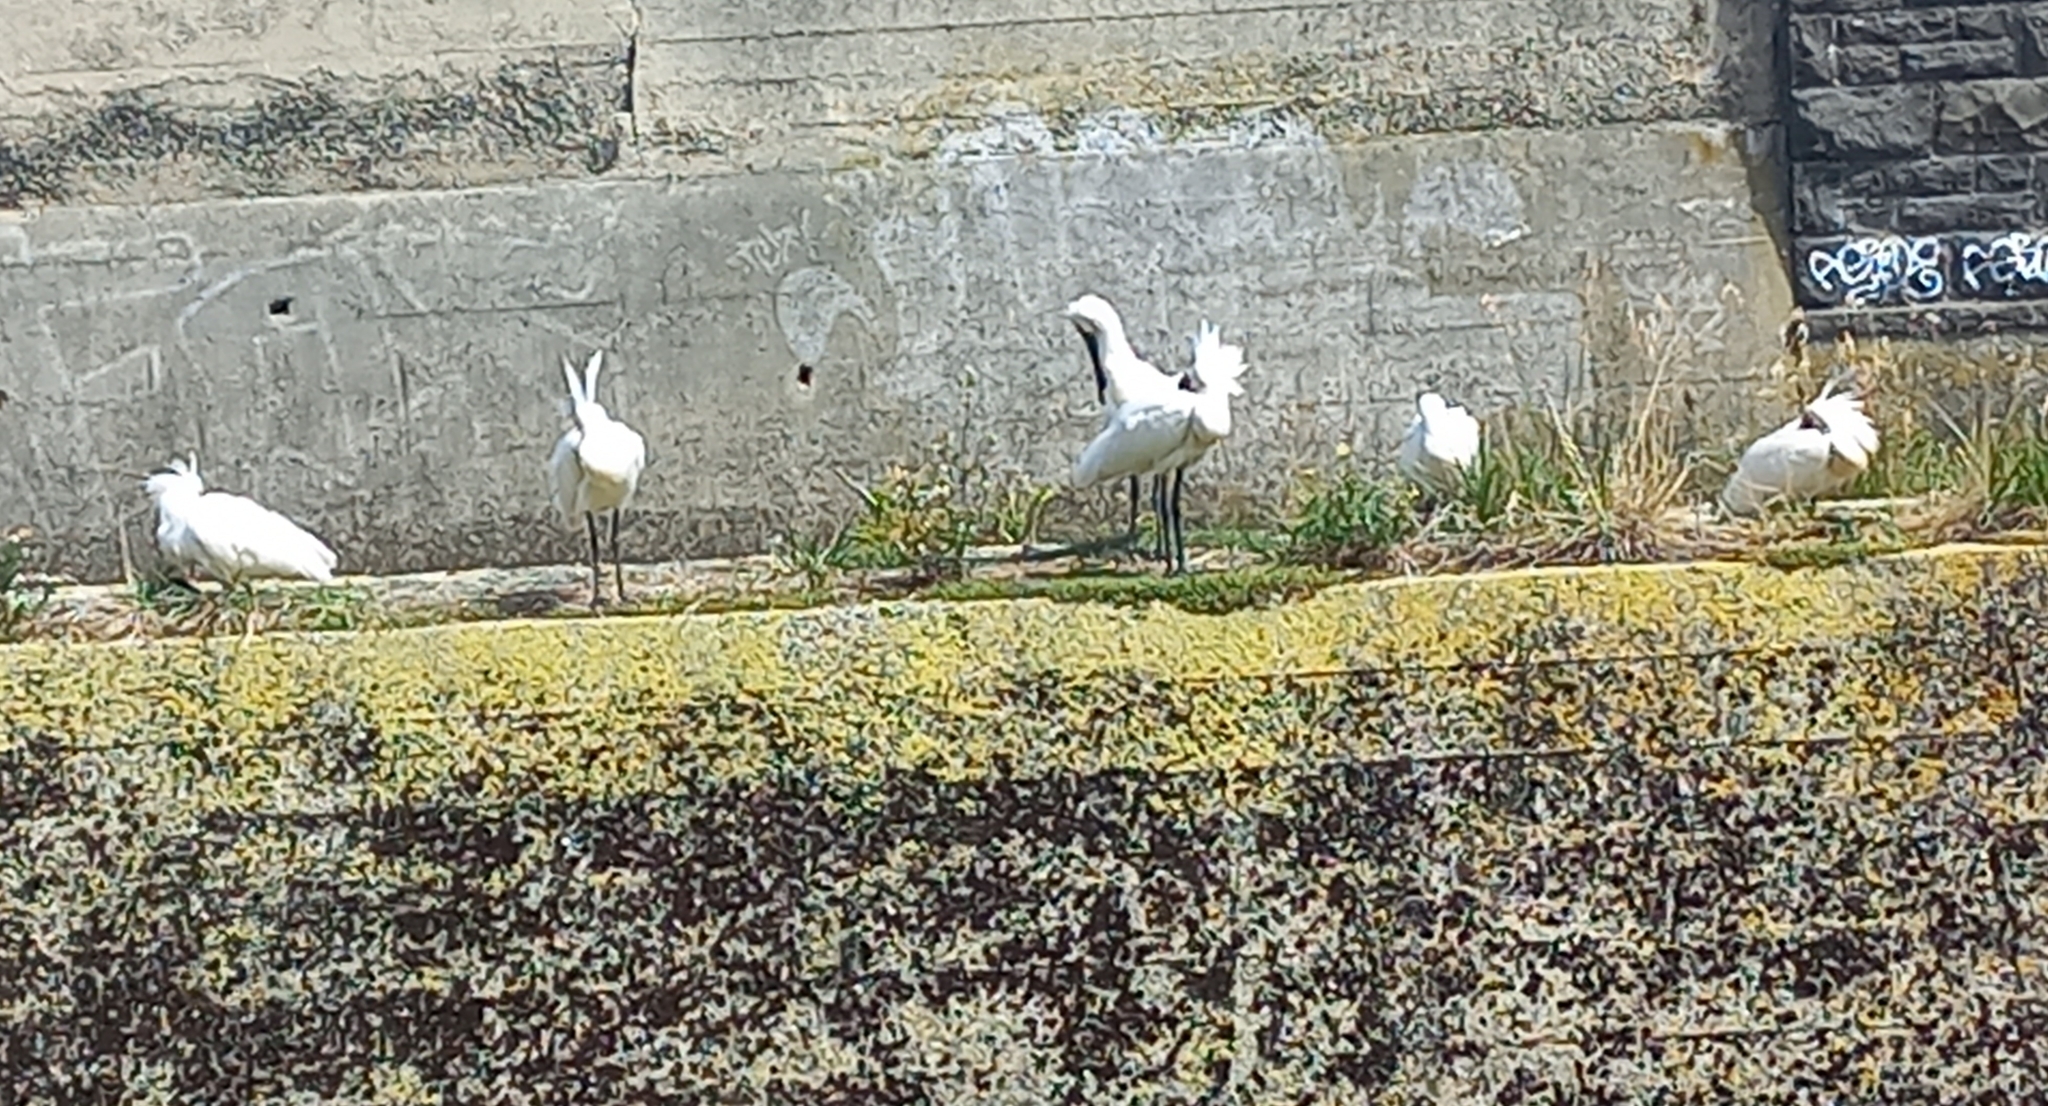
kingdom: Animalia
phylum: Chordata
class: Aves
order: Pelecaniformes
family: Threskiornithidae
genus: Platalea
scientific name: Platalea regia
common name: Royal spoonbill
